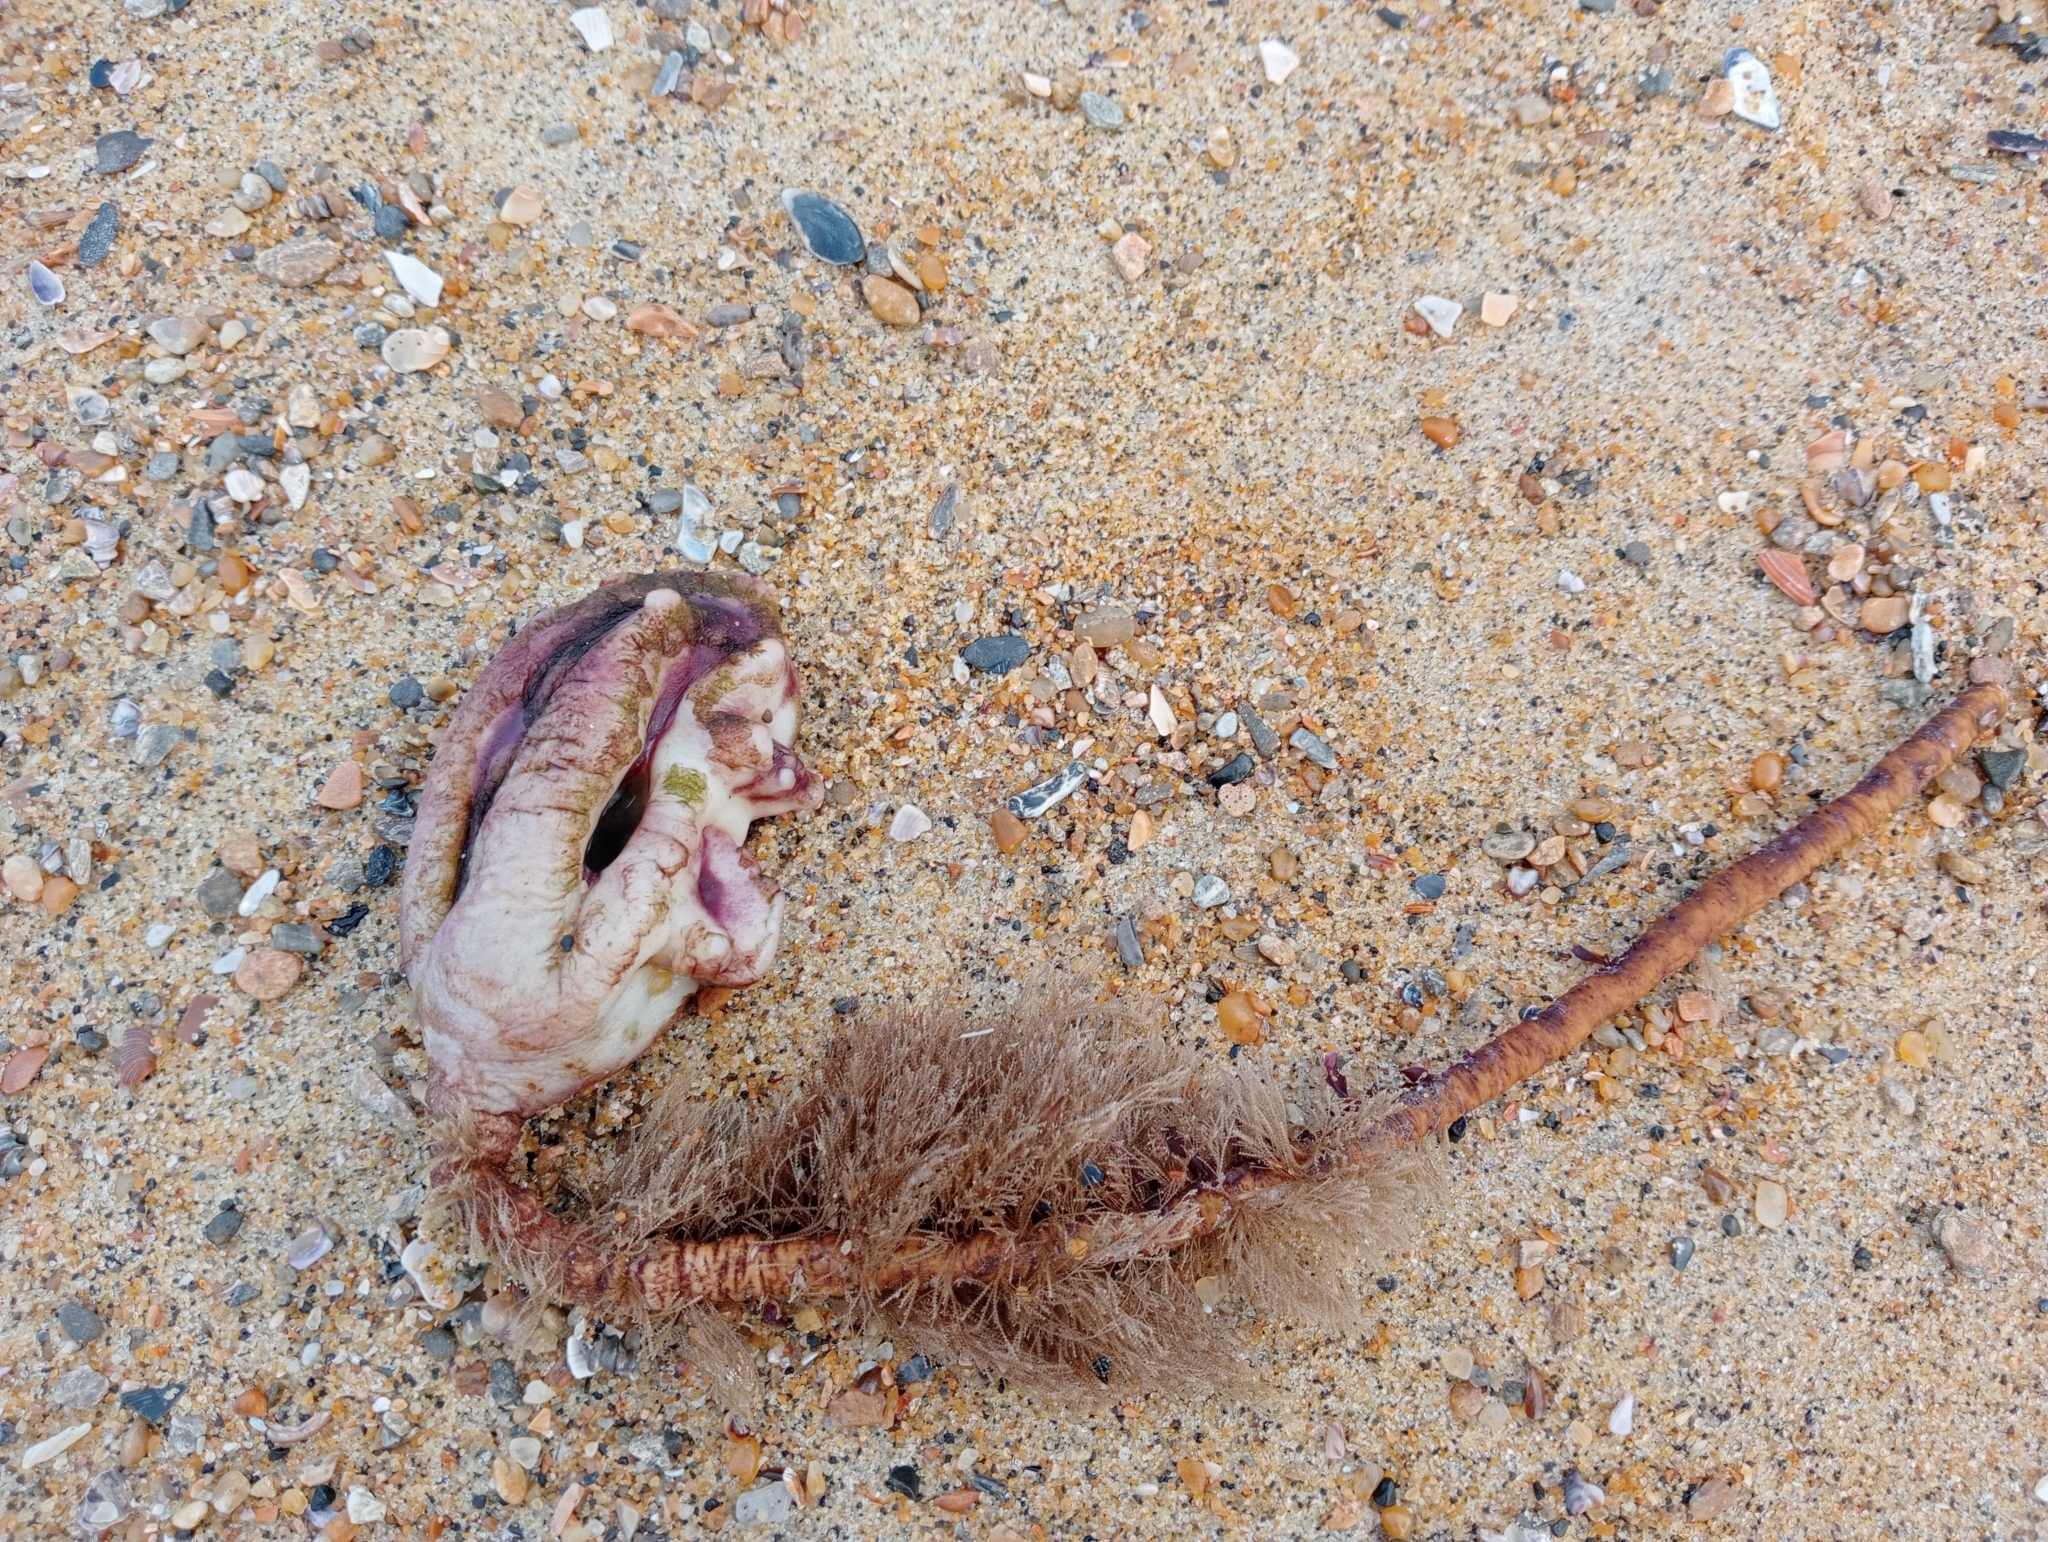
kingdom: Animalia
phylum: Chordata
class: Ascidiacea
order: Stolidobranchia
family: Pyuridae
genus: Pyura
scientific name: Pyura pachydermatina
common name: Sea tulip
